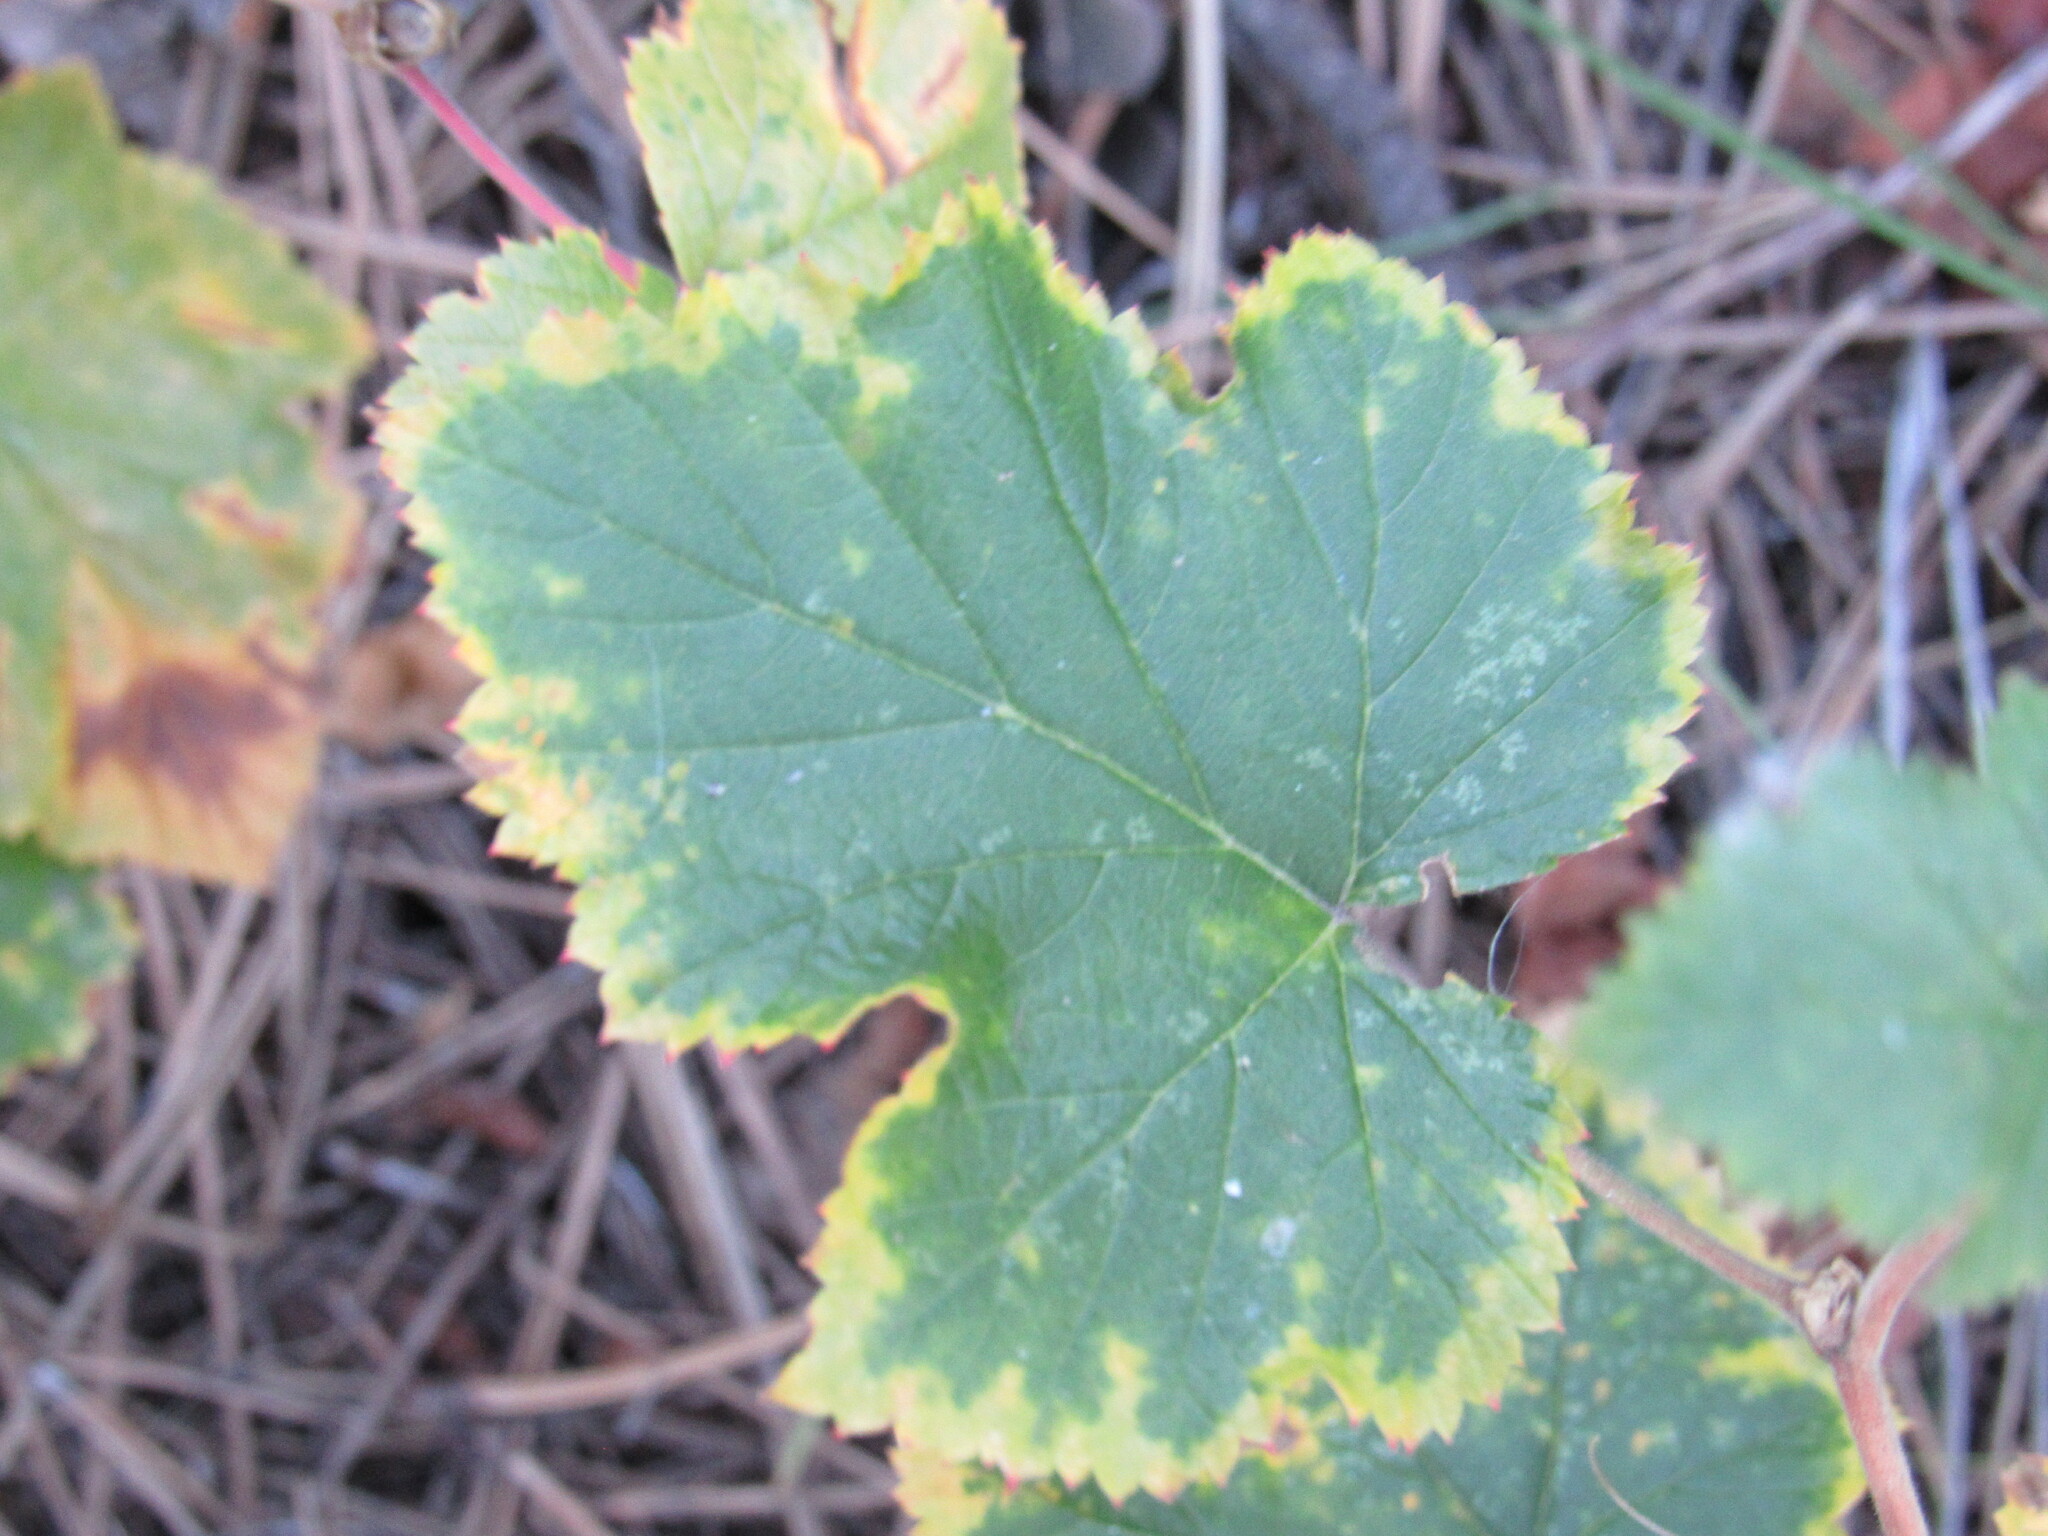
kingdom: Plantae
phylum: Tracheophyta
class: Magnoliopsida
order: Rosales
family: Rosaceae
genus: Rubus
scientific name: Rubus deliciosus
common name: Rocky mountain raspberry
